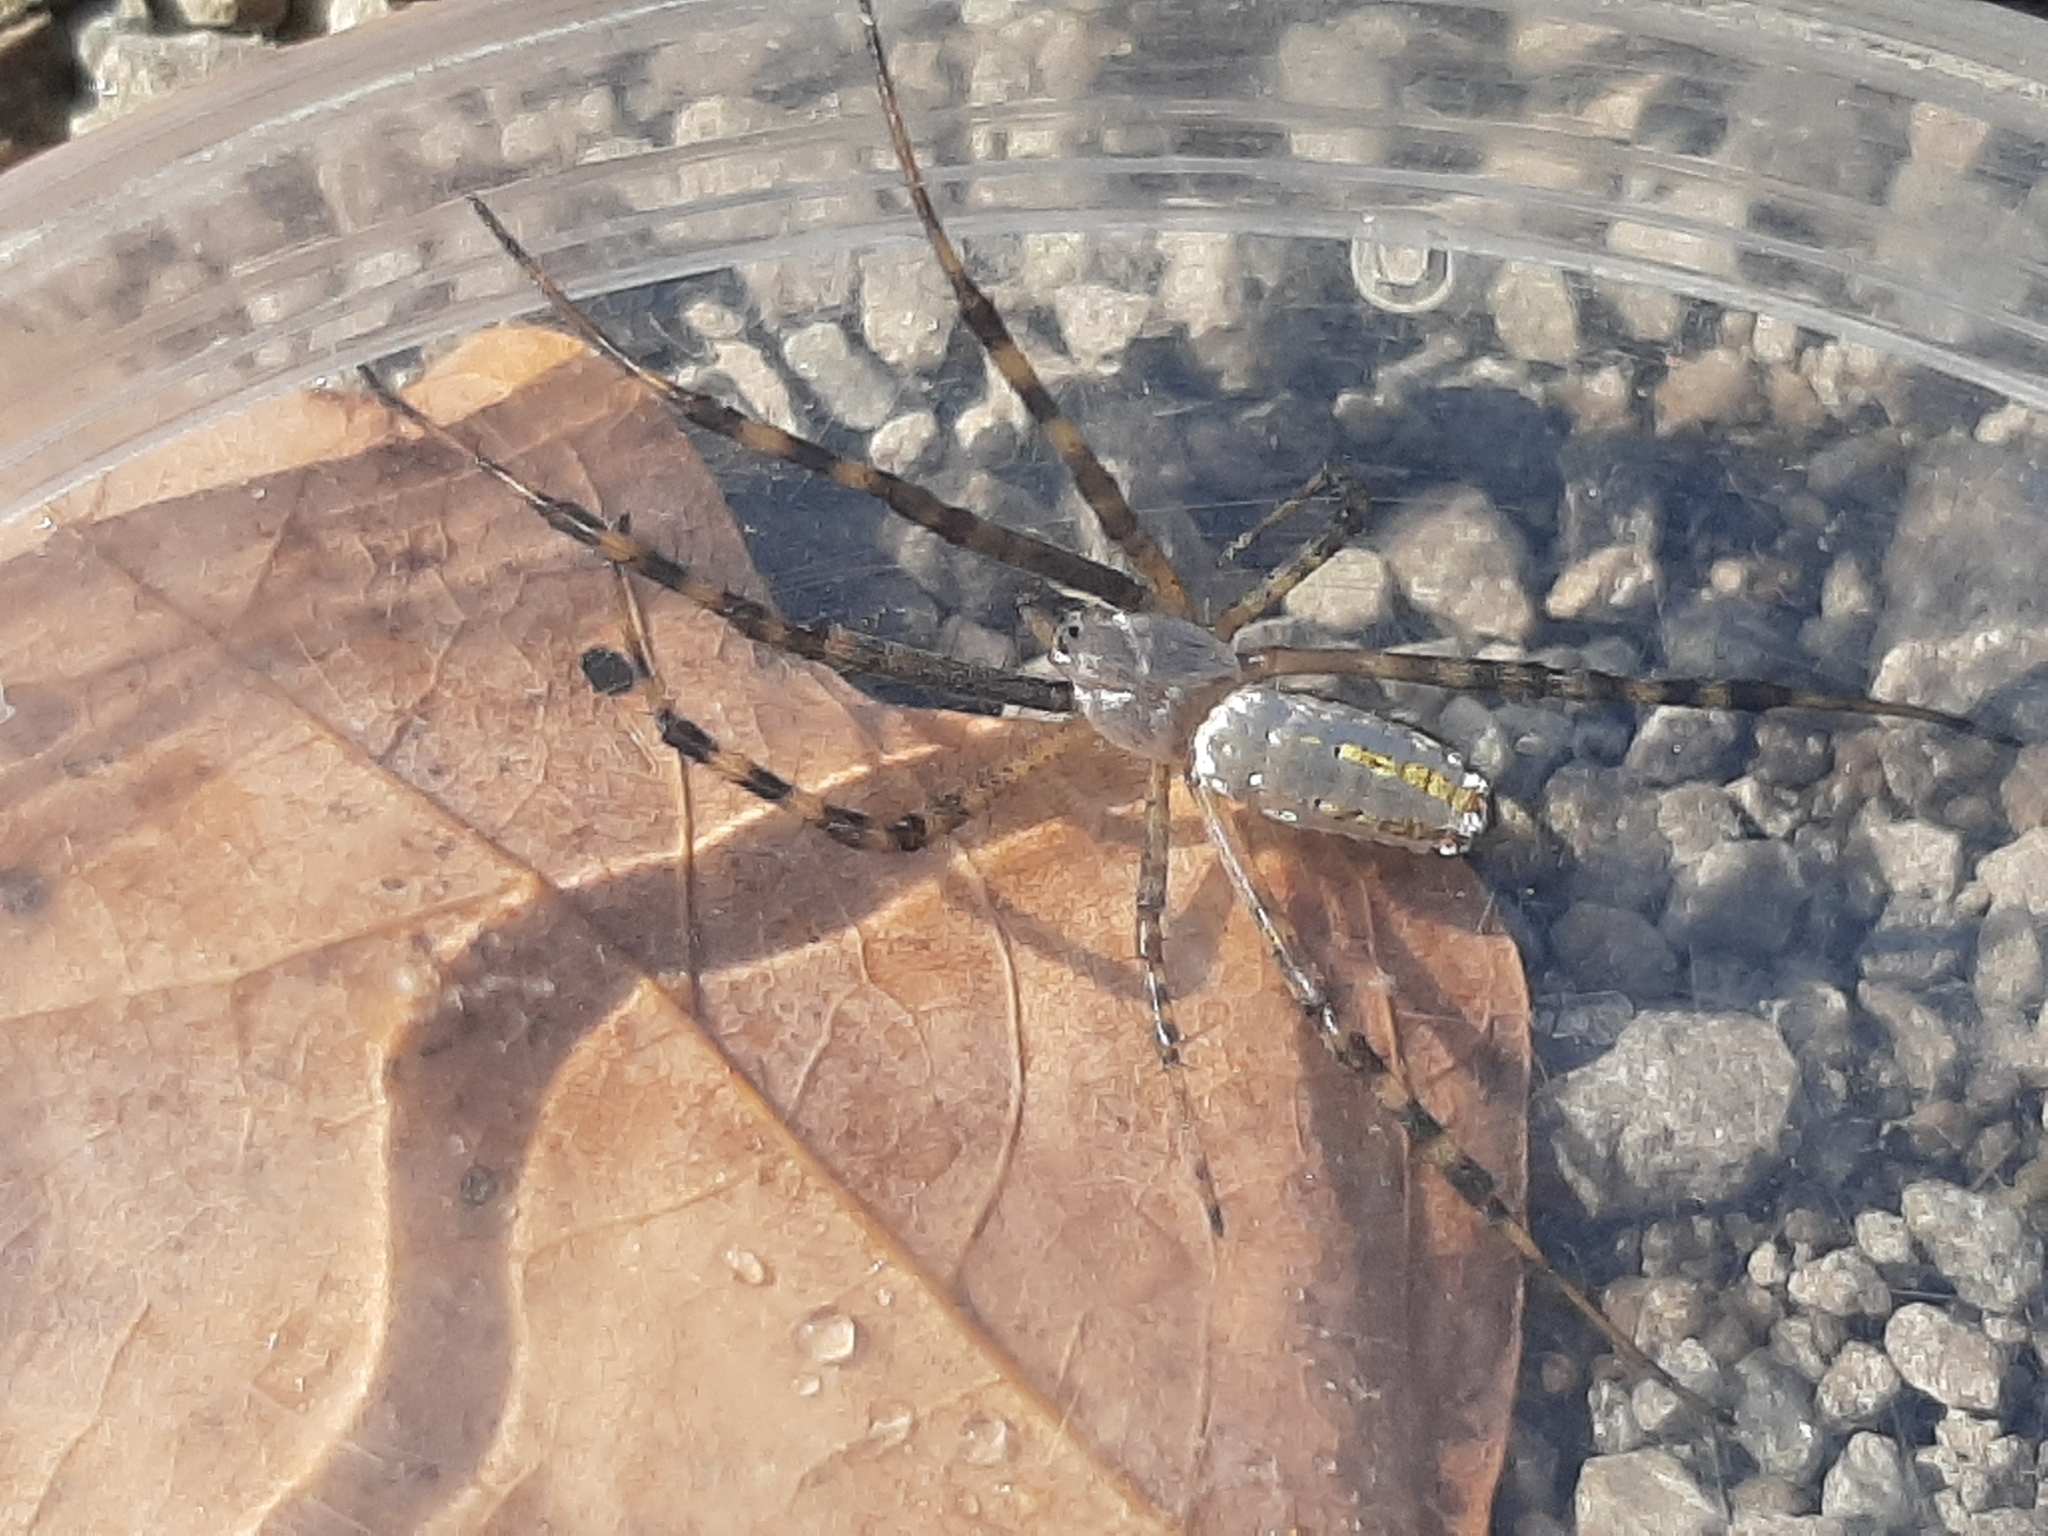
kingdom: Animalia
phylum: Arthropoda
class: Arachnida
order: Araneae
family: Araneidae
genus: Argiope
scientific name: Argiope trifasciata
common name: Banded garden spider
